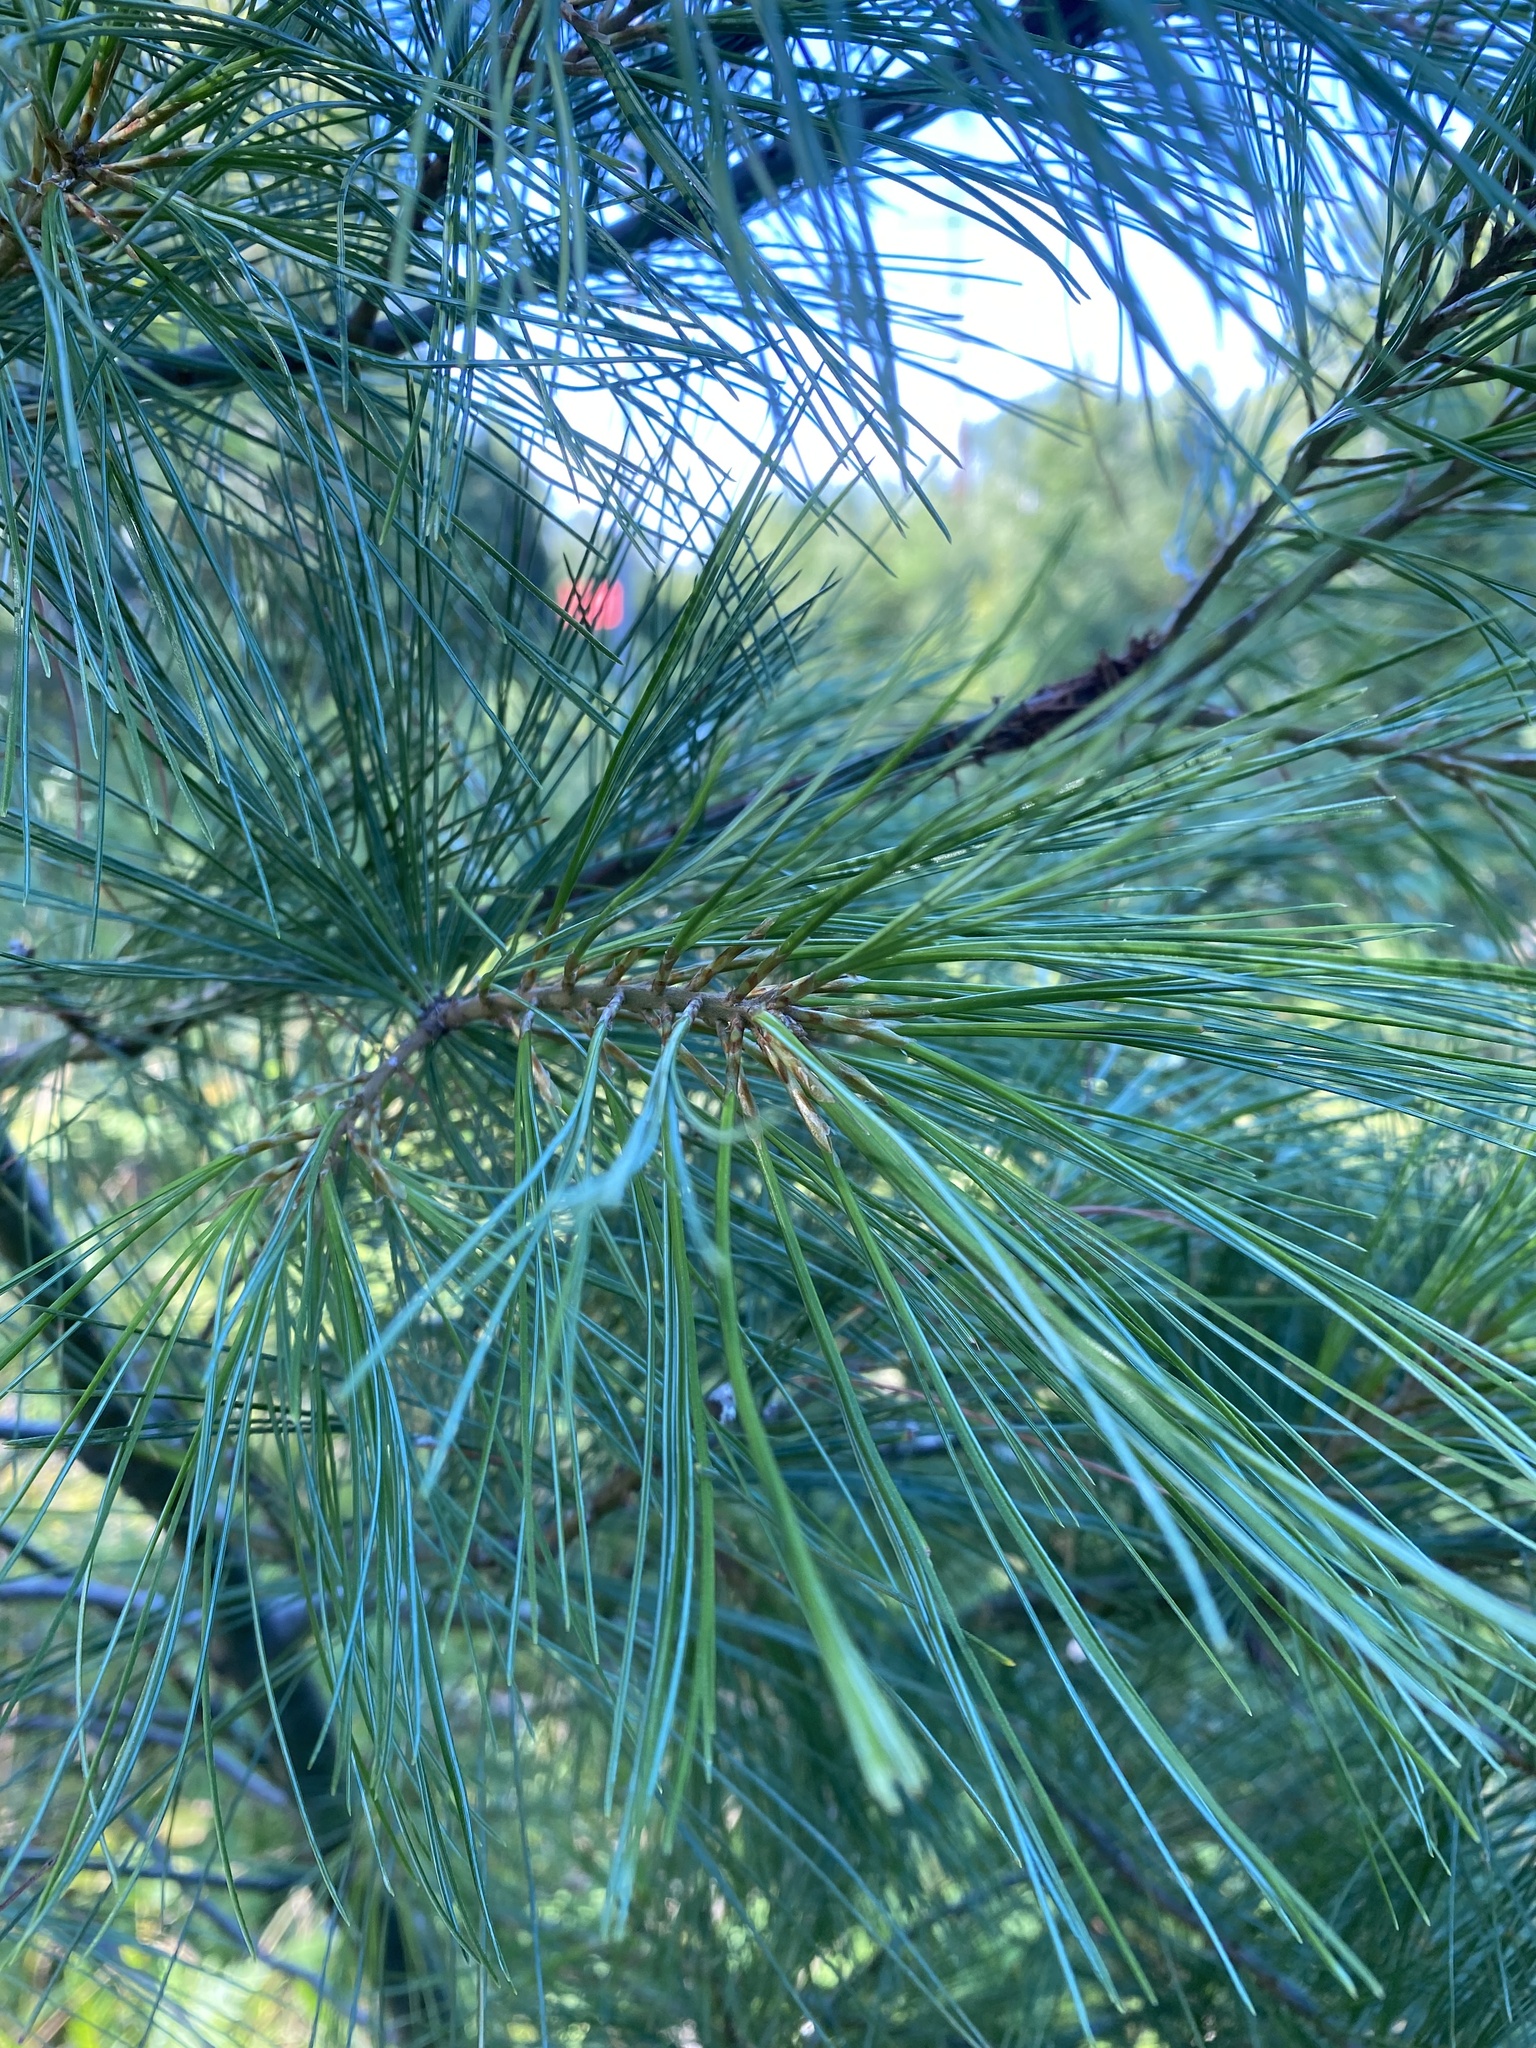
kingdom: Plantae
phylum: Tracheophyta
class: Pinopsida
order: Pinales
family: Pinaceae
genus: Pinus
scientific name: Pinus strobus
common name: Weymouth pine
